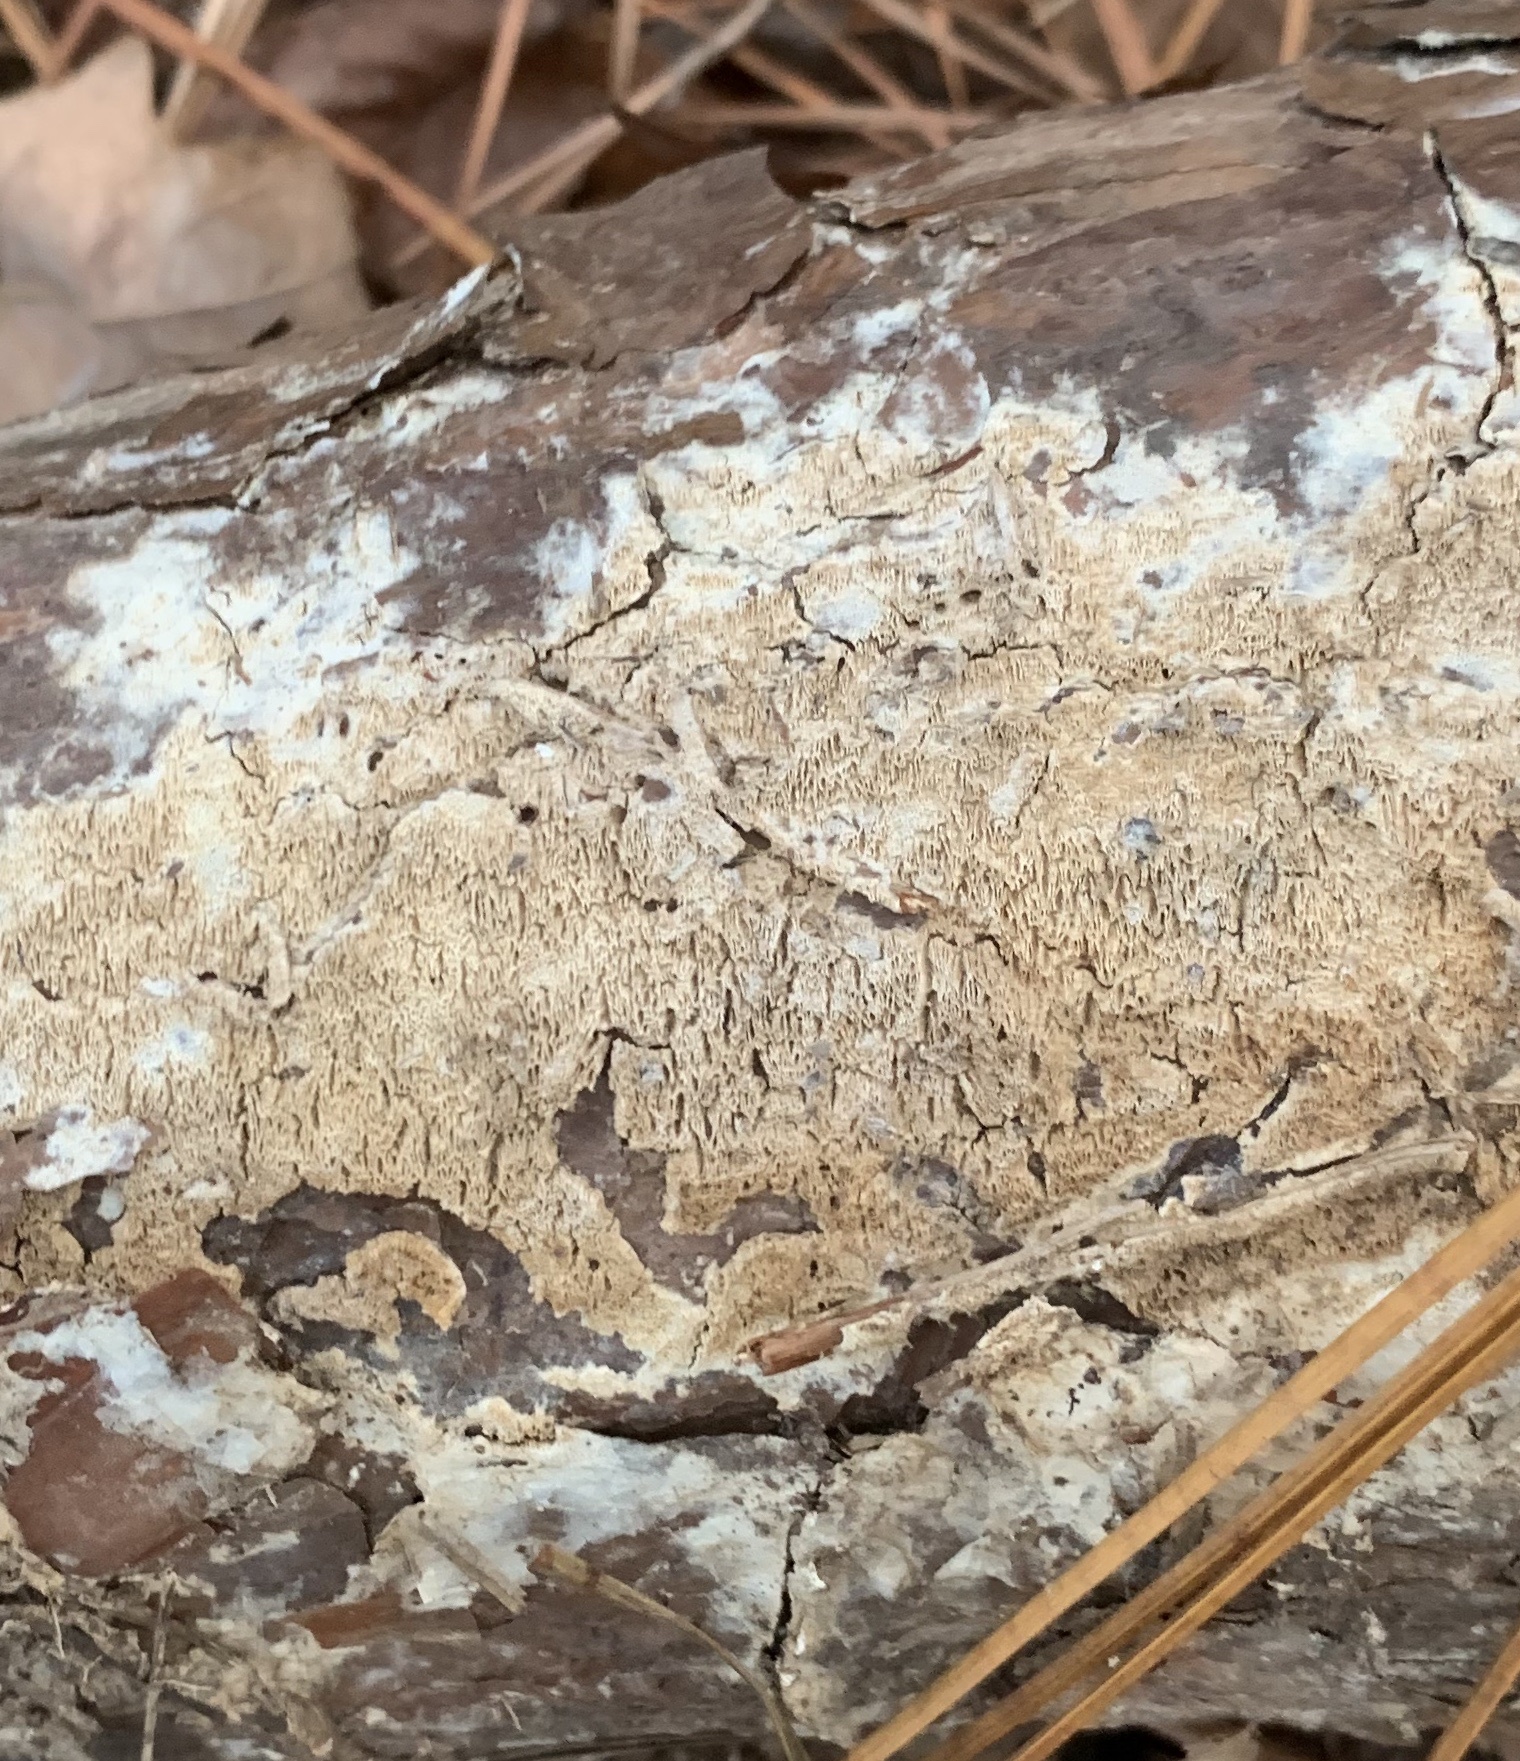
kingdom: Fungi
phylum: Basidiomycota
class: Agaricomycetes
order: Polyporales
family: Irpicaceae
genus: Irpex
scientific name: Irpex lacteus
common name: Milk-white toothed polypore
